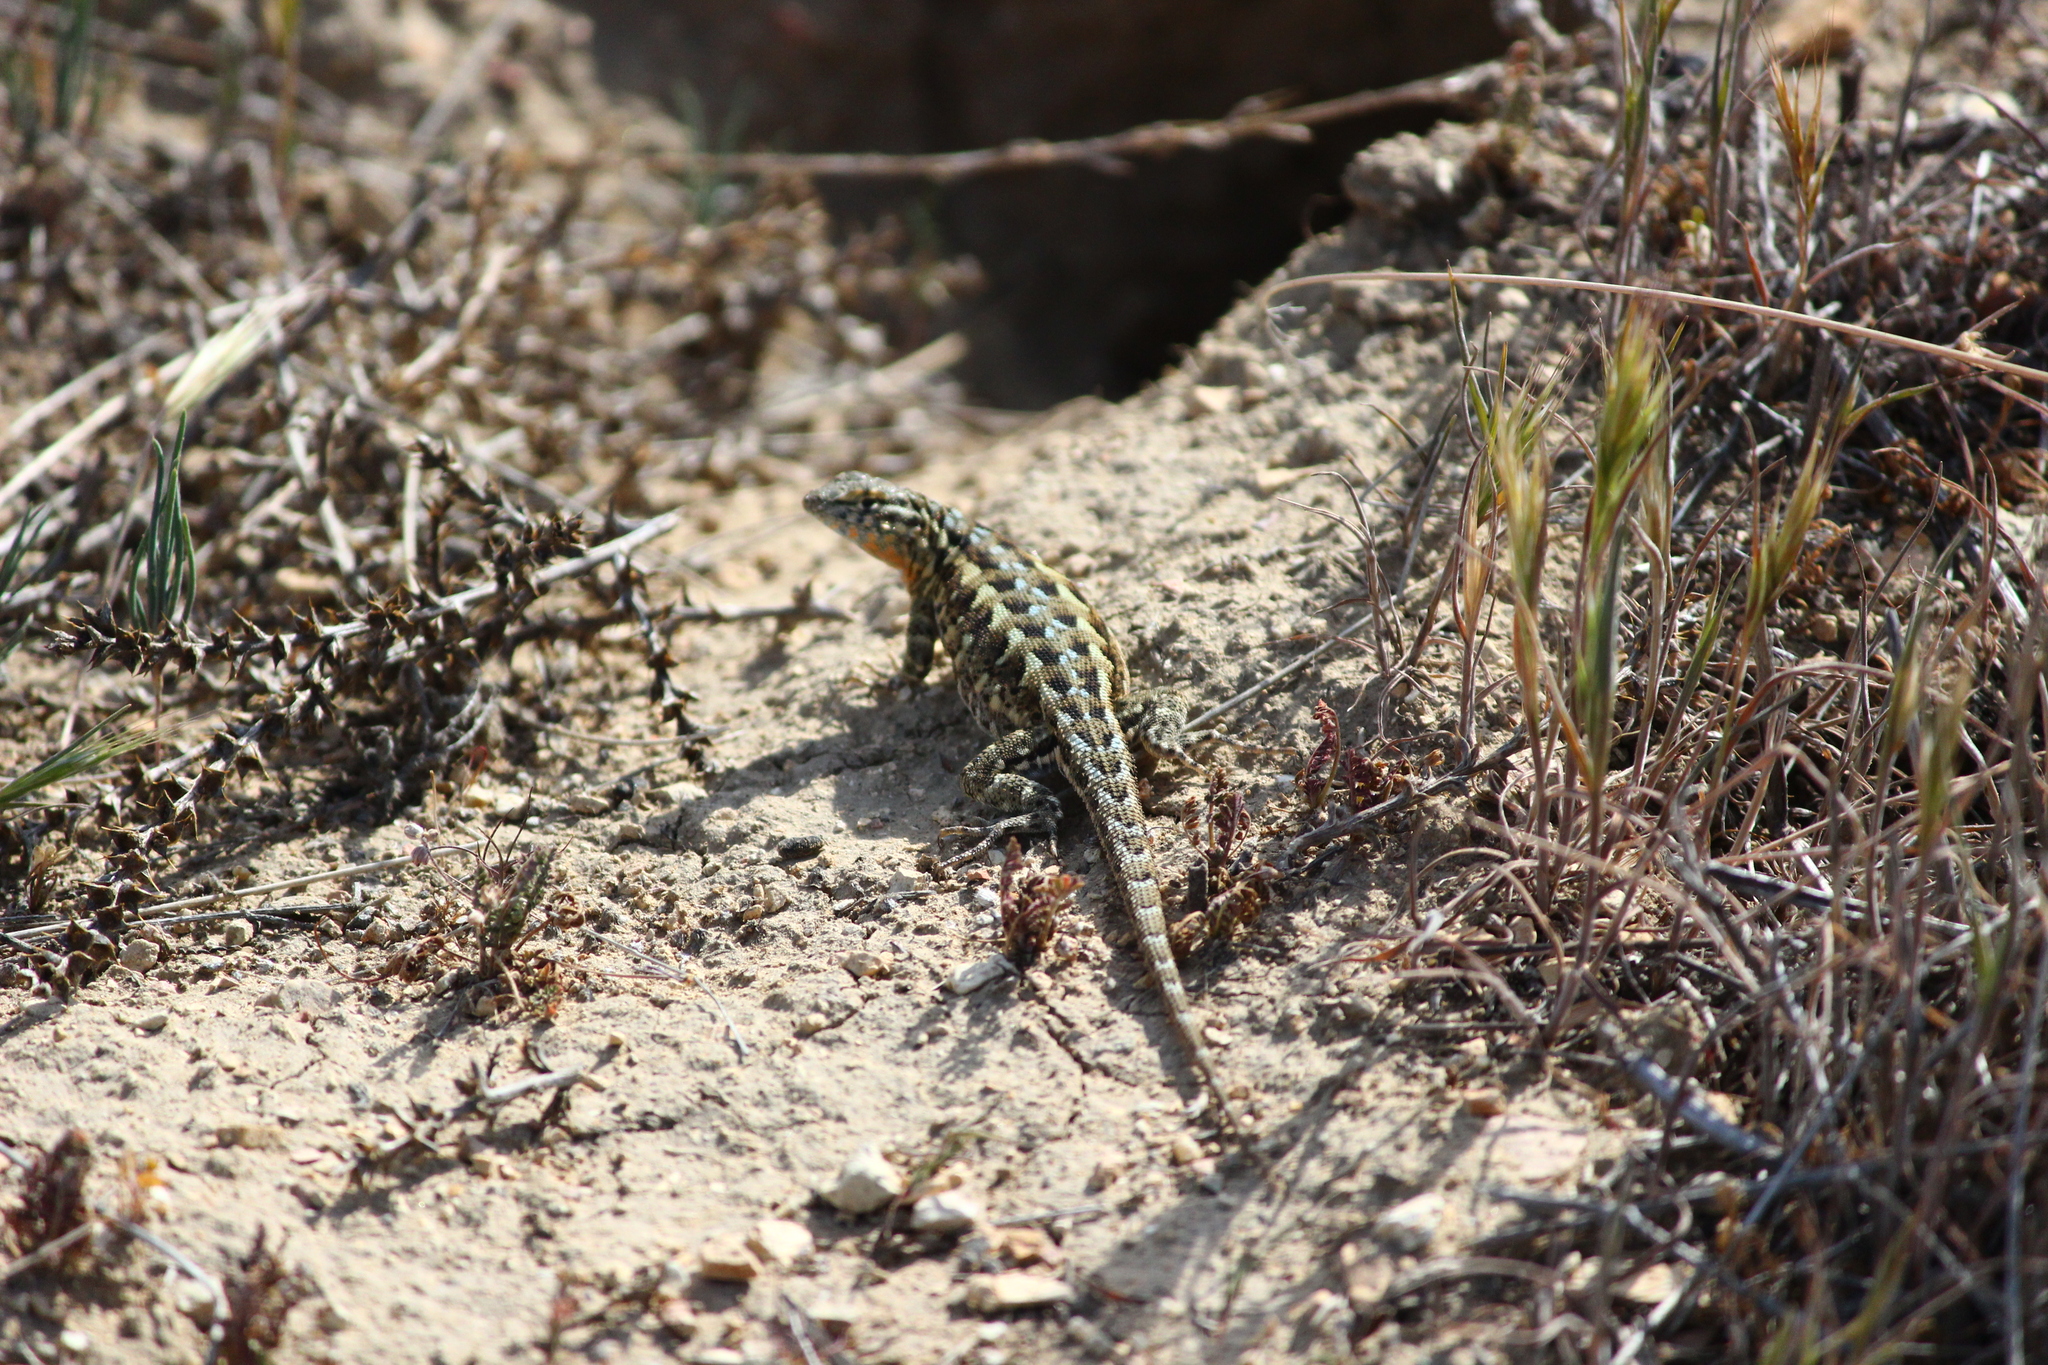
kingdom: Animalia
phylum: Chordata
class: Squamata
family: Phrynosomatidae
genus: Uta
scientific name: Uta stansburiana
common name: Side-blotched lizard
